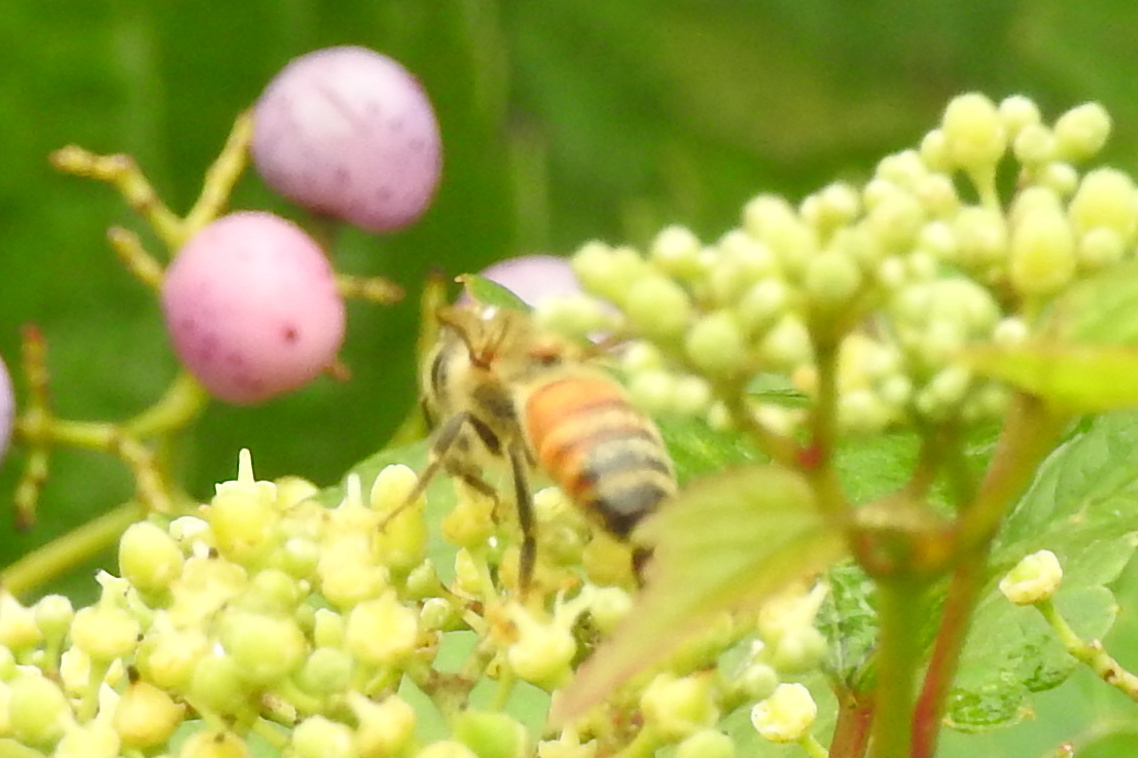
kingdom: Animalia
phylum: Arthropoda
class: Insecta
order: Hymenoptera
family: Apidae
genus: Apis
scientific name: Apis mellifera
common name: Honey bee
